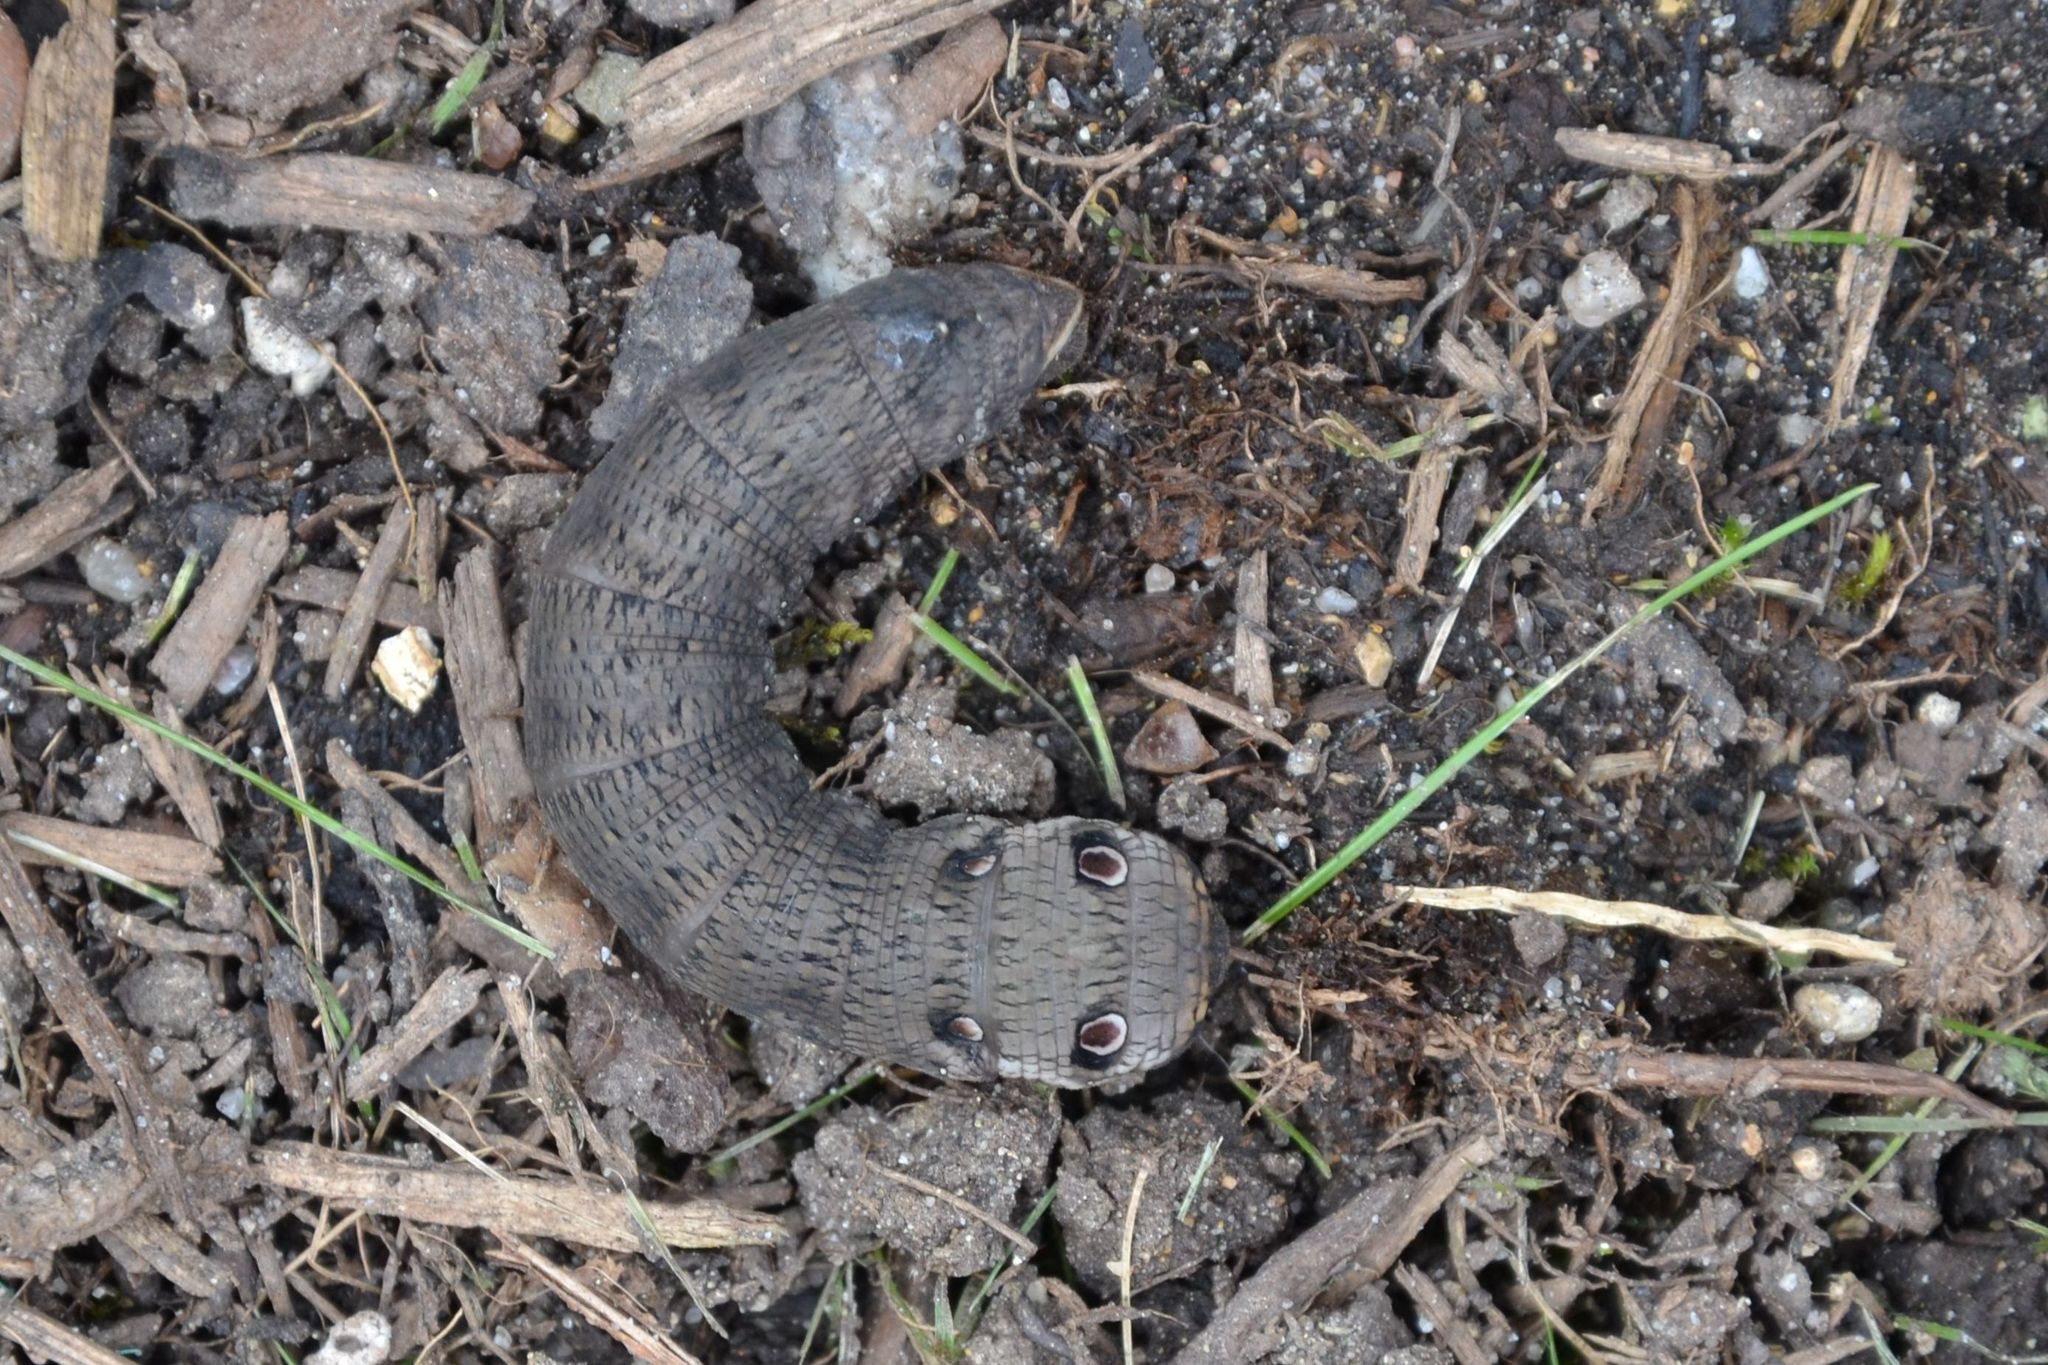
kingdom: Animalia
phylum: Arthropoda
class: Insecta
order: Lepidoptera
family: Sphingidae
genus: Deilephila
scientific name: Deilephila porcellus
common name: Small elephant hawk-moth
